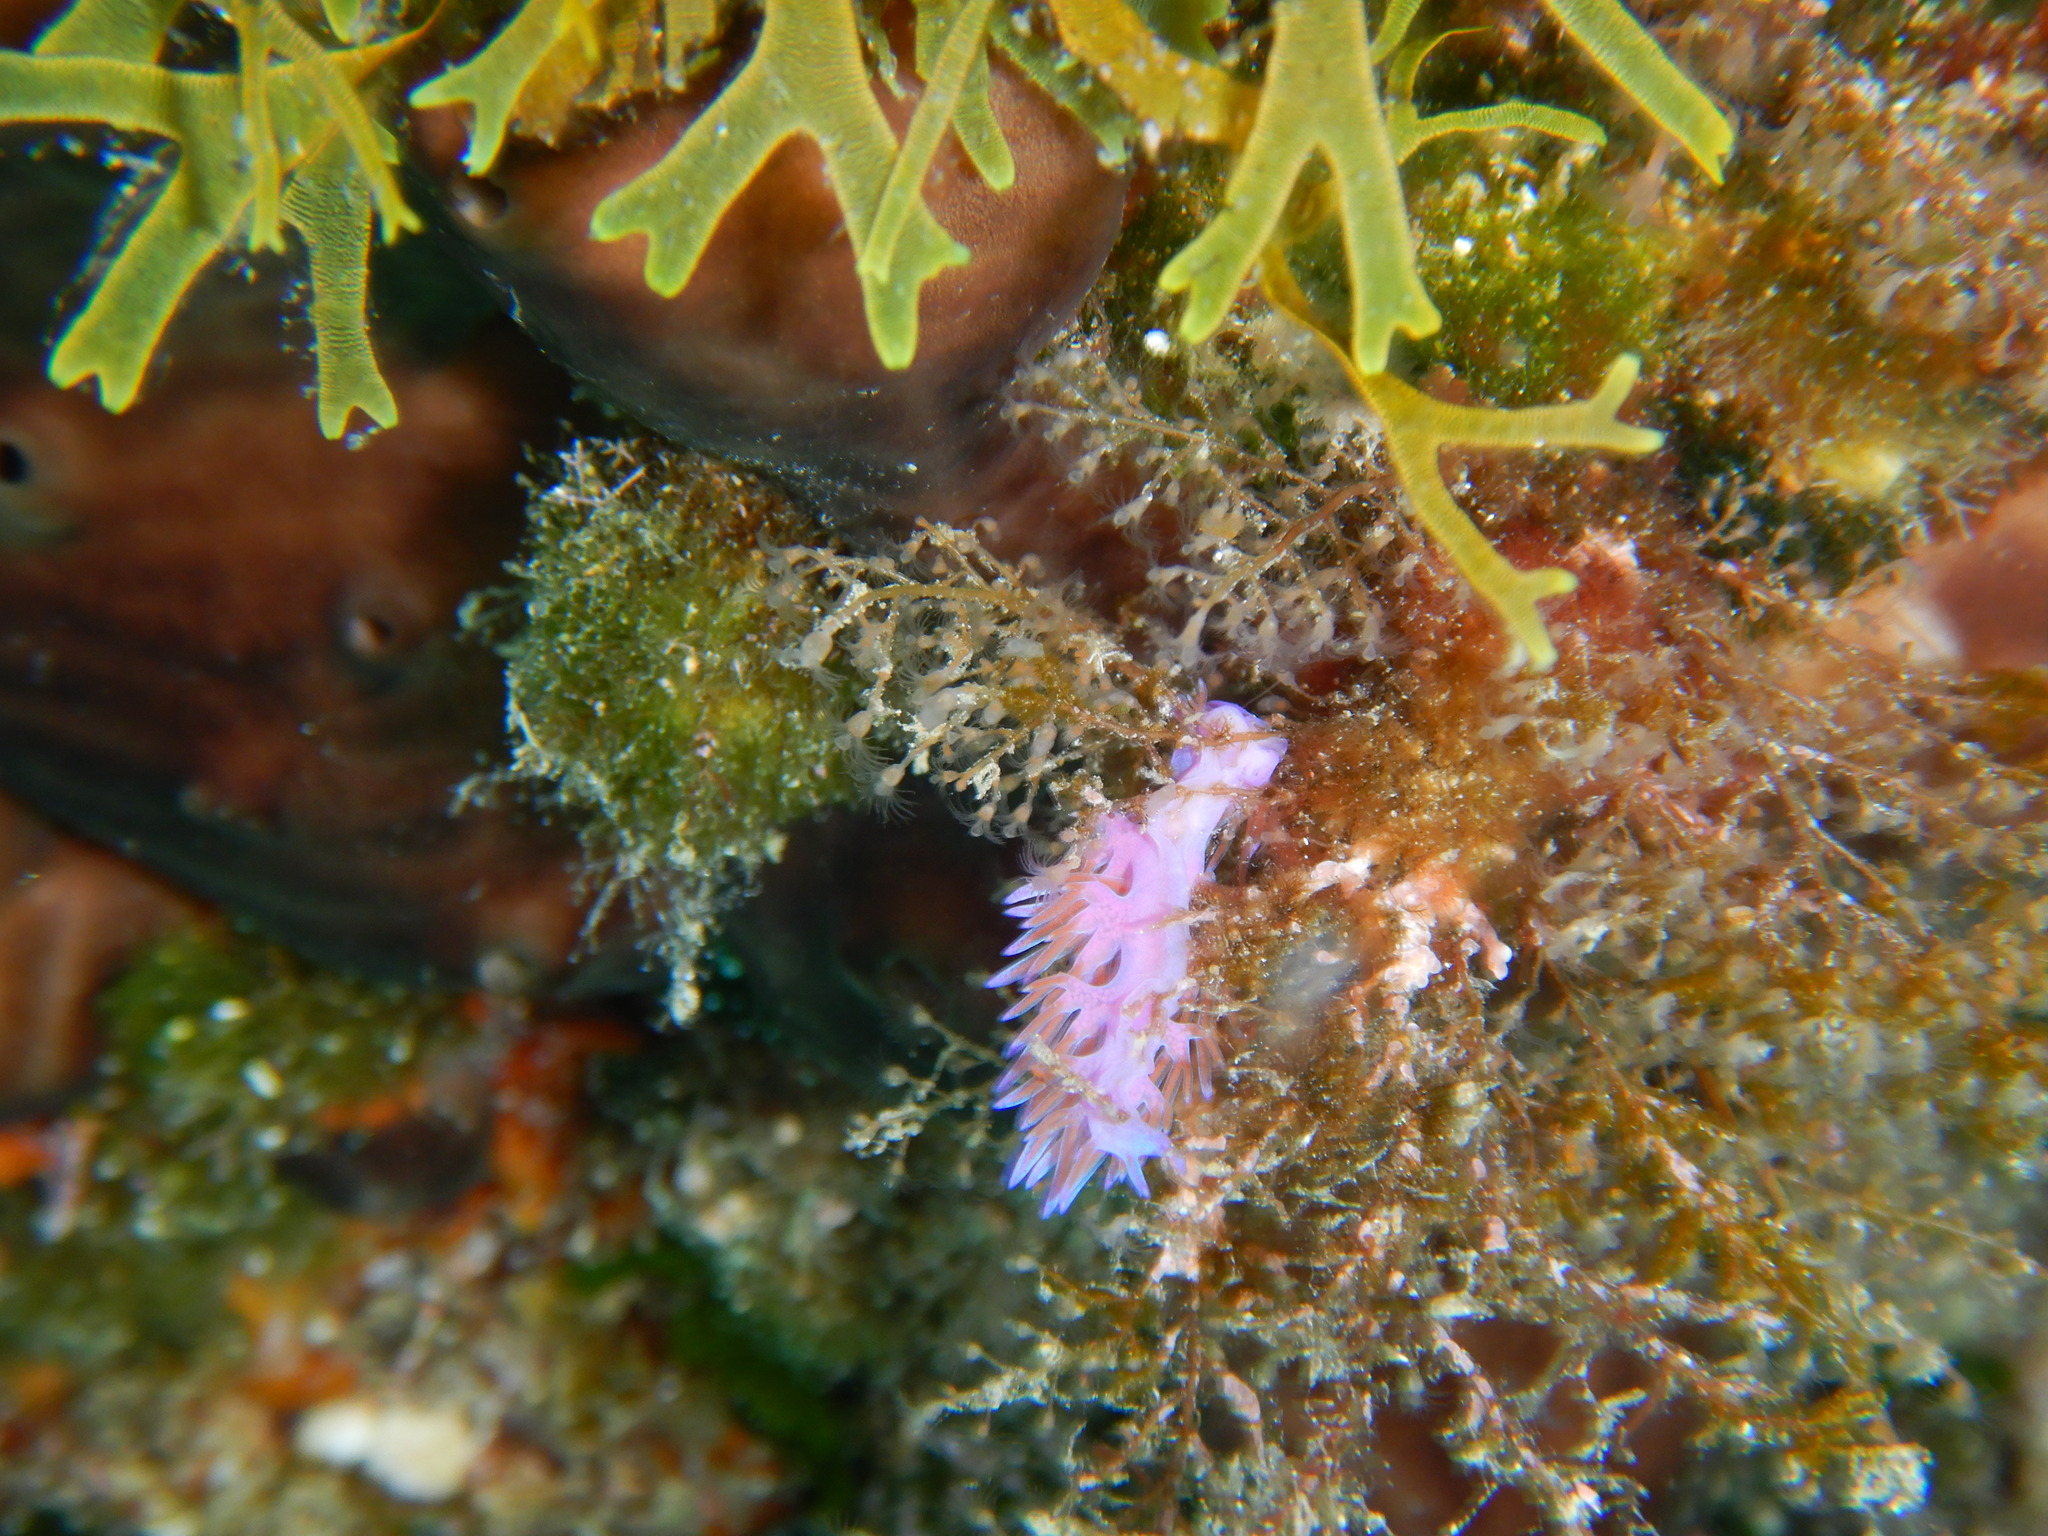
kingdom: Animalia
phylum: Mollusca
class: Gastropoda
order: Nudibranchia
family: Flabellinidae
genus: Flabellina
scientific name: Flabellina affinis
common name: Mediterranean violet aeolid
